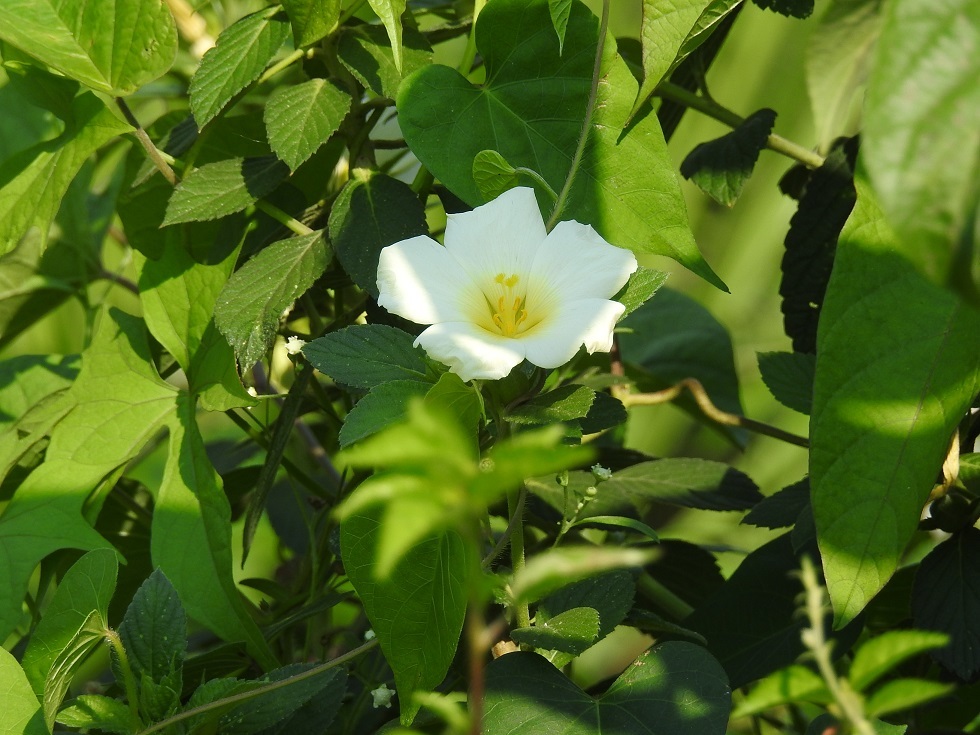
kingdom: Plantae
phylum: Tracheophyta
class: Magnoliopsida
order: Malpighiales
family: Turneraceae
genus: Turnera
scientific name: Turnera ulmifolia
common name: Ramgoat dashalong
